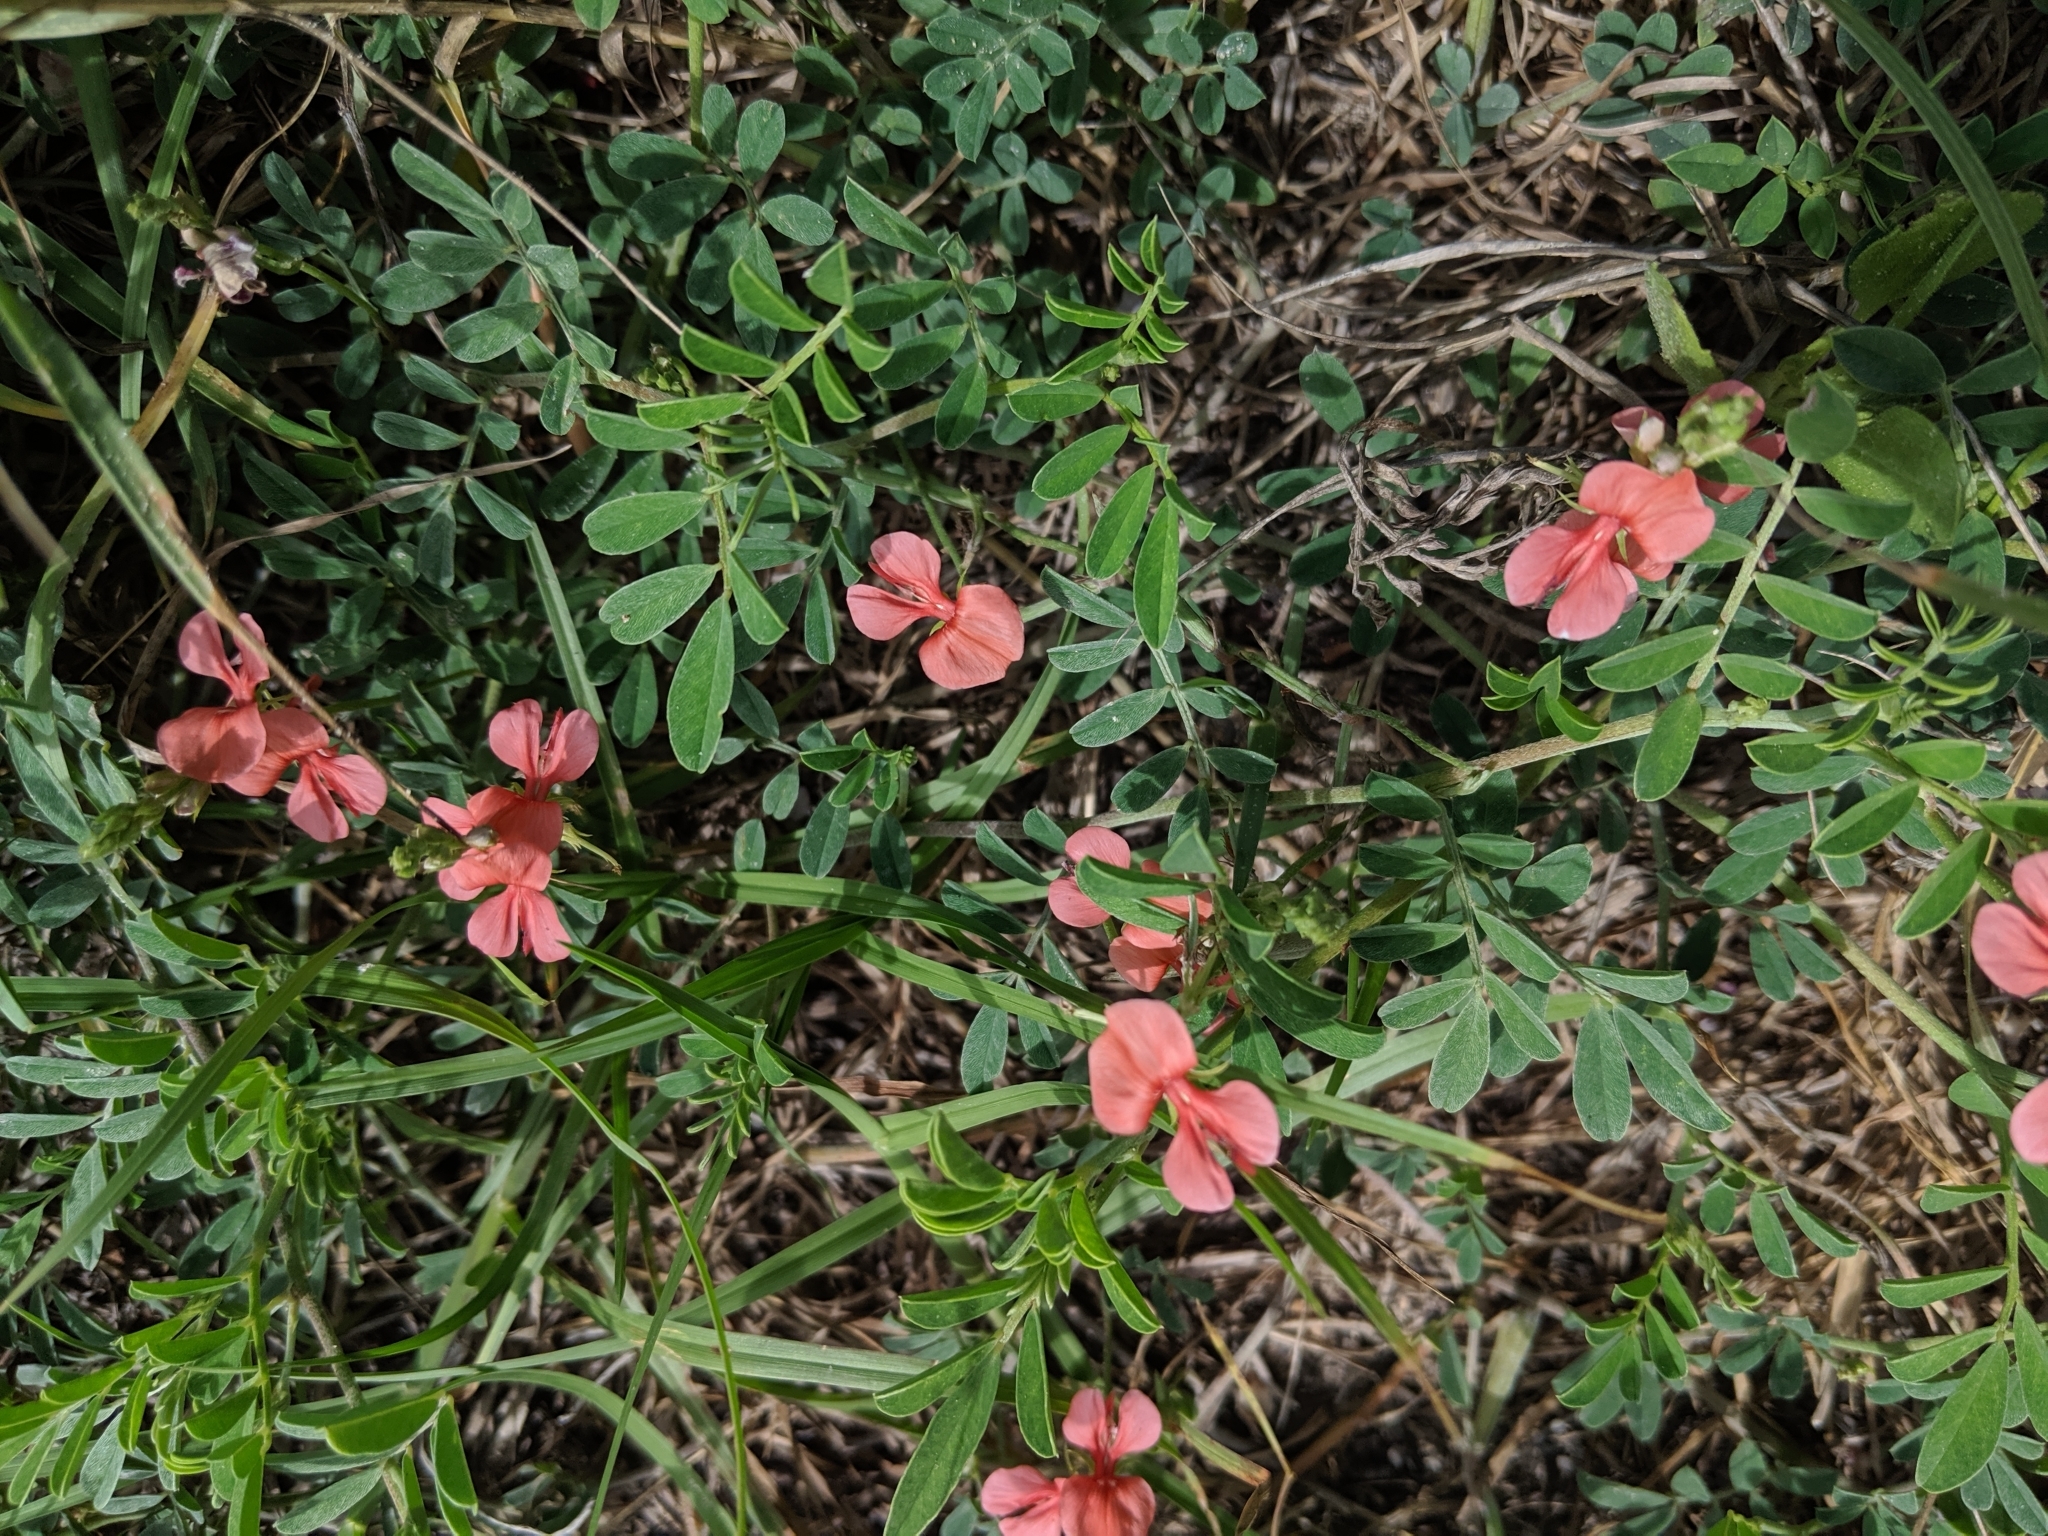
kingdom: Plantae
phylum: Tracheophyta
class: Magnoliopsida
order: Fabales
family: Fabaceae
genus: Indigofera
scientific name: Indigofera miniata
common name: Coast indigo
